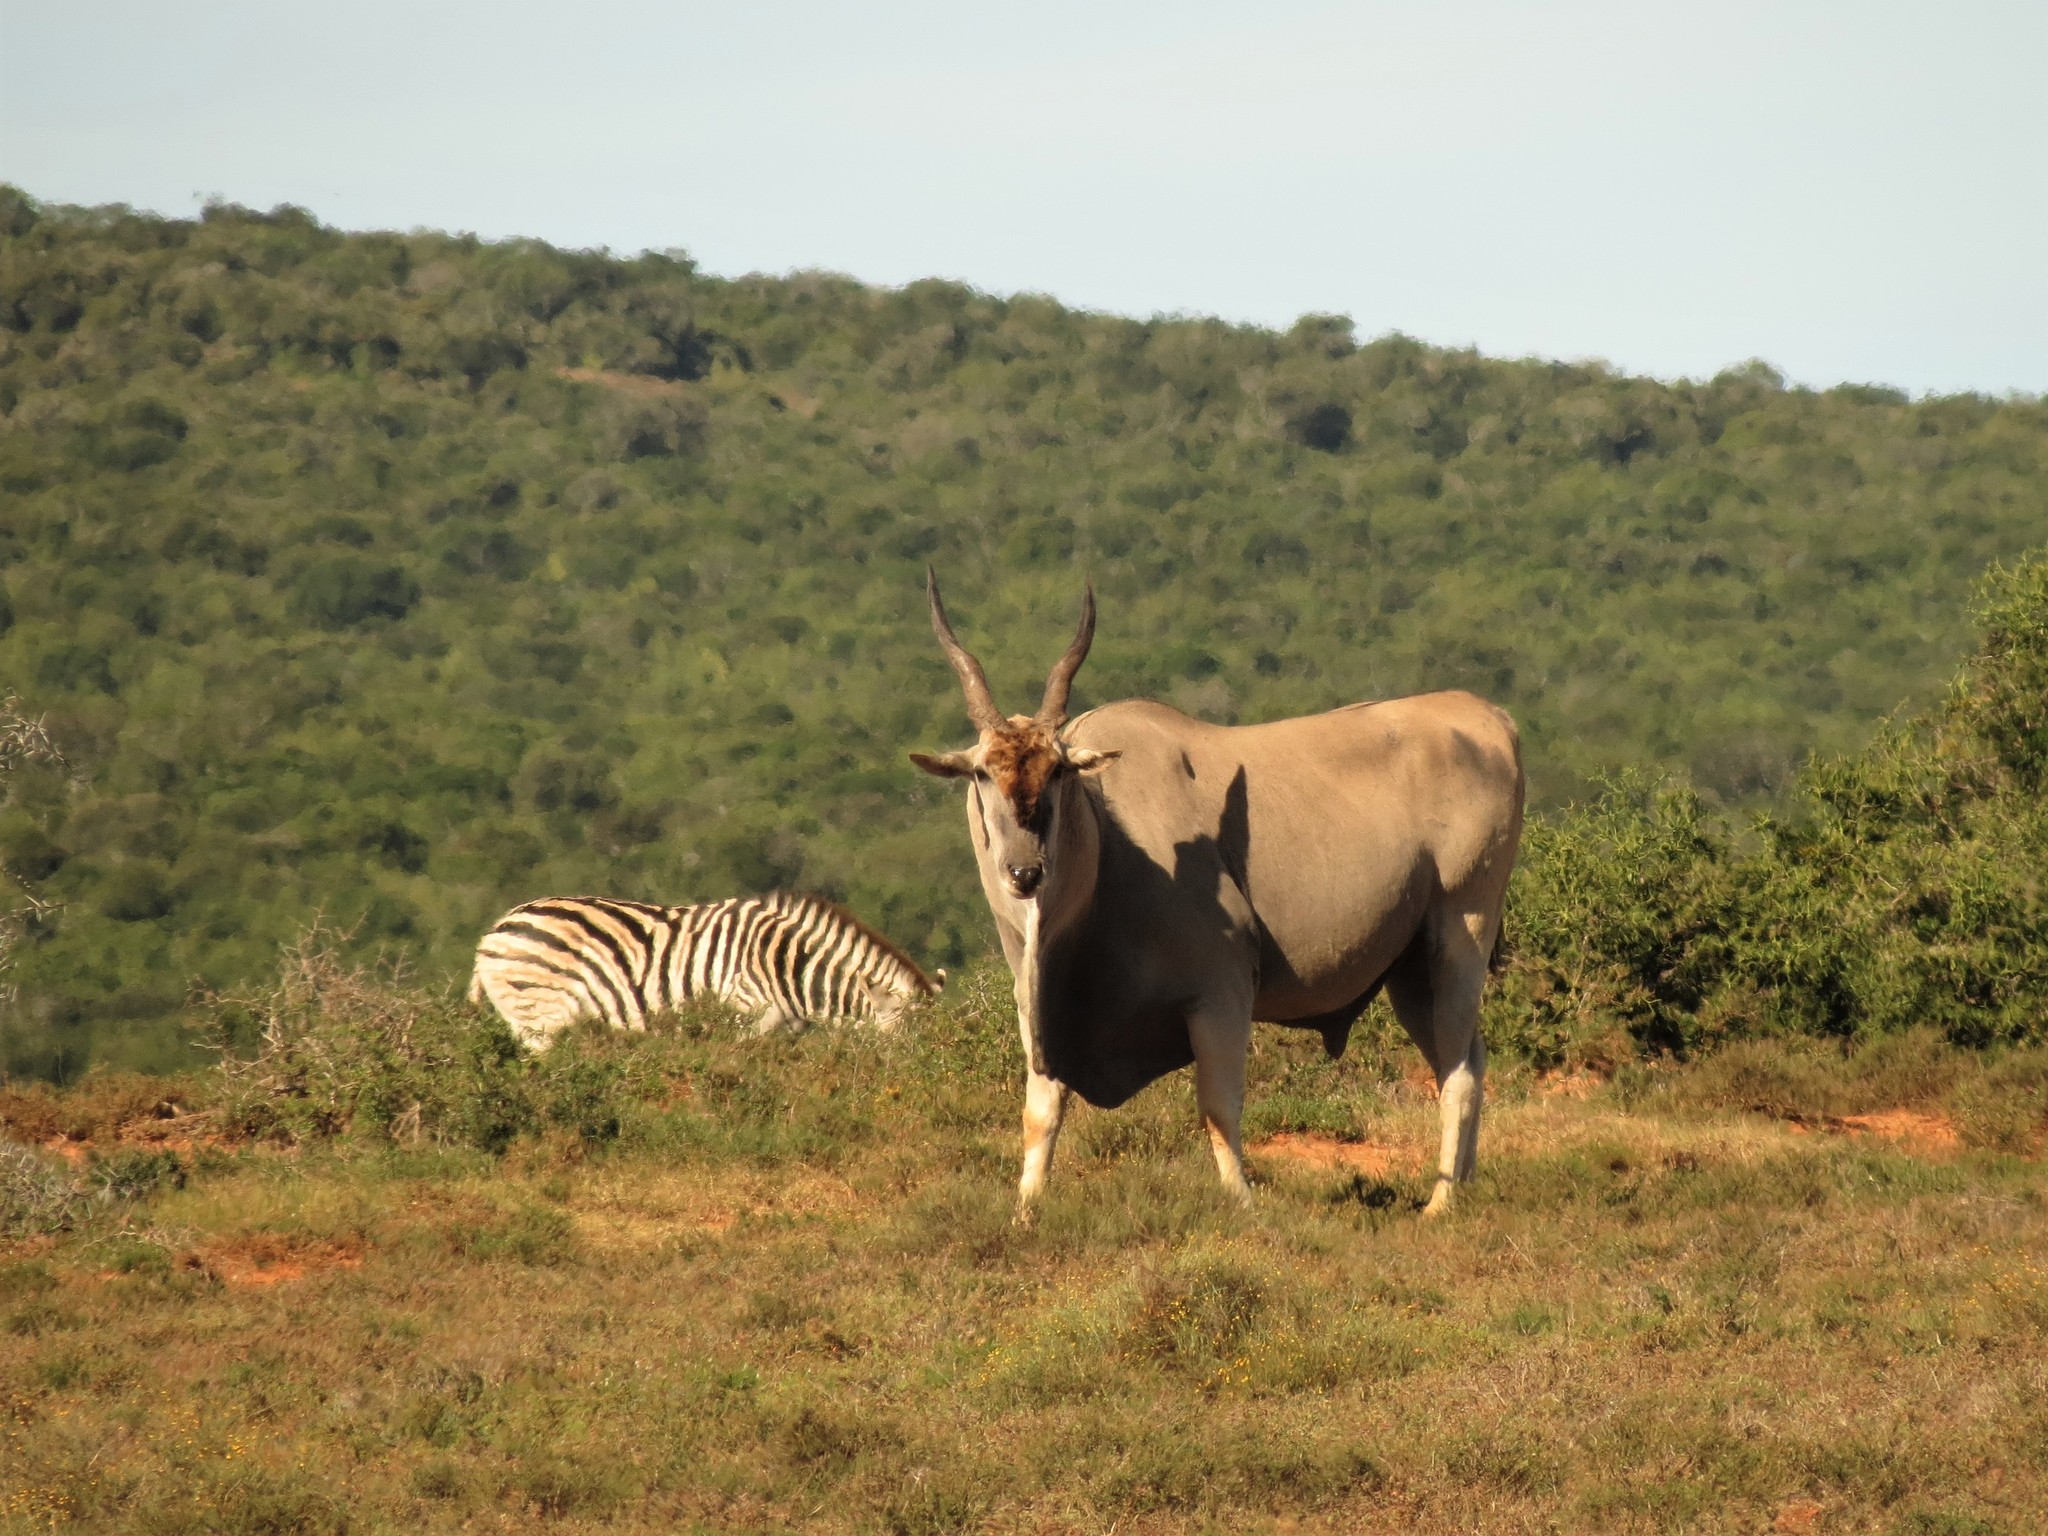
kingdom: Animalia
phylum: Chordata
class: Mammalia
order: Artiodactyla
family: Bovidae
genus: Taurotragus
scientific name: Taurotragus oryx
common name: Common eland
